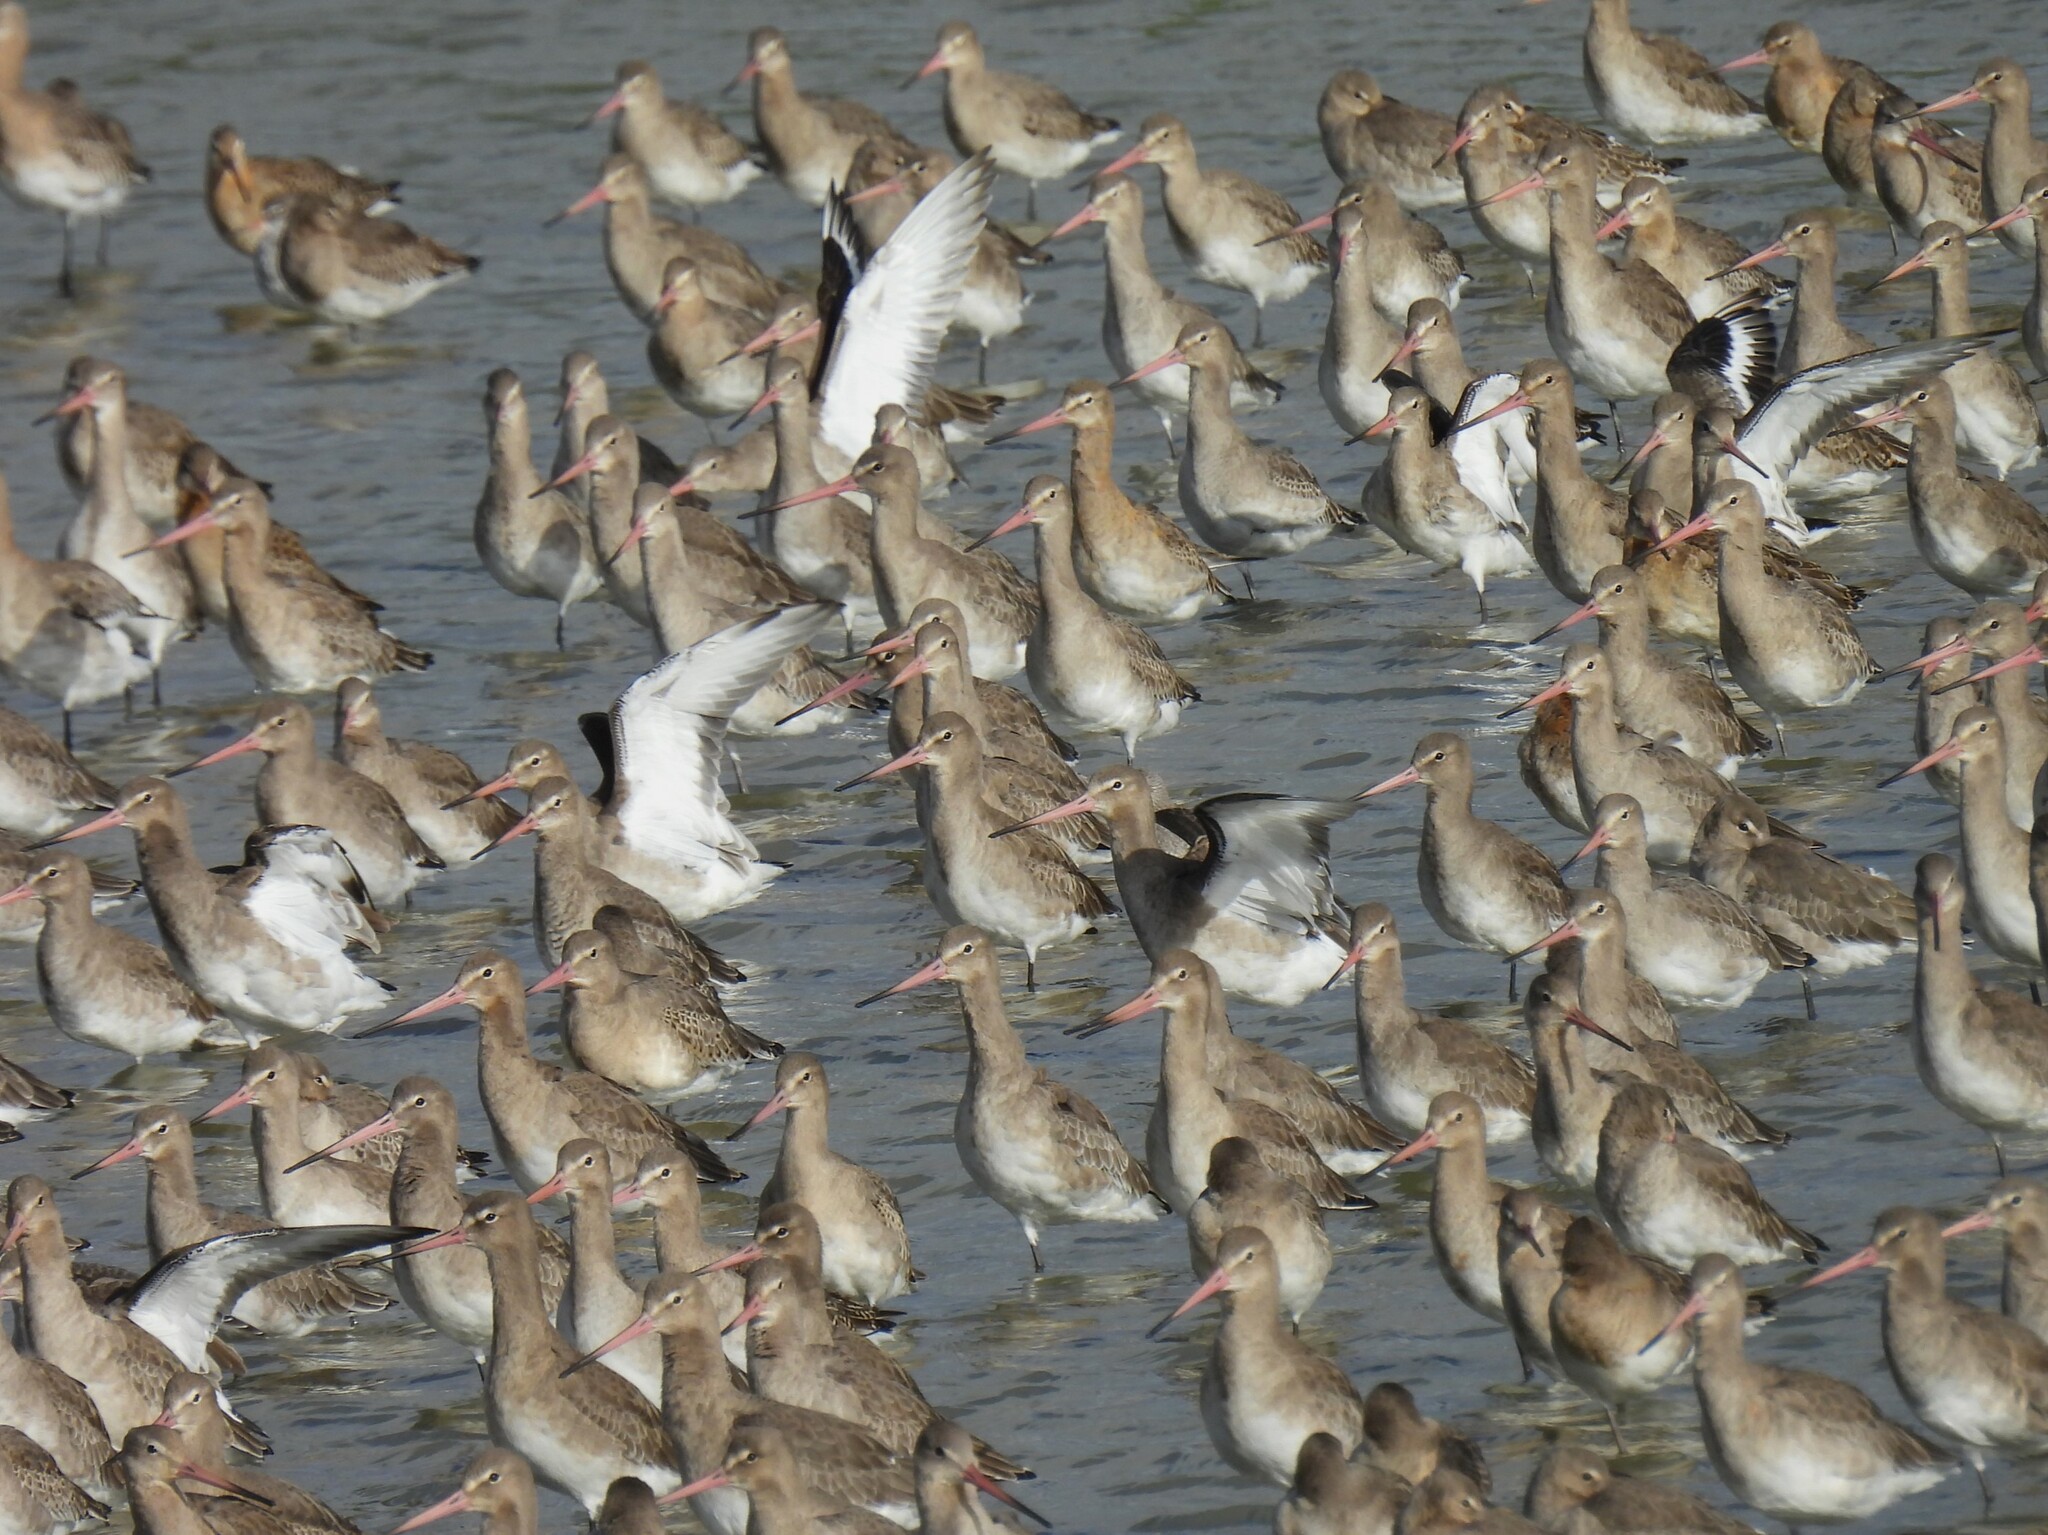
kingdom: Animalia
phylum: Chordata
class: Aves
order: Charadriiformes
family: Scolopacidae
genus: Limosa
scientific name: Limosa limosa
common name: Black-tailed godwit
